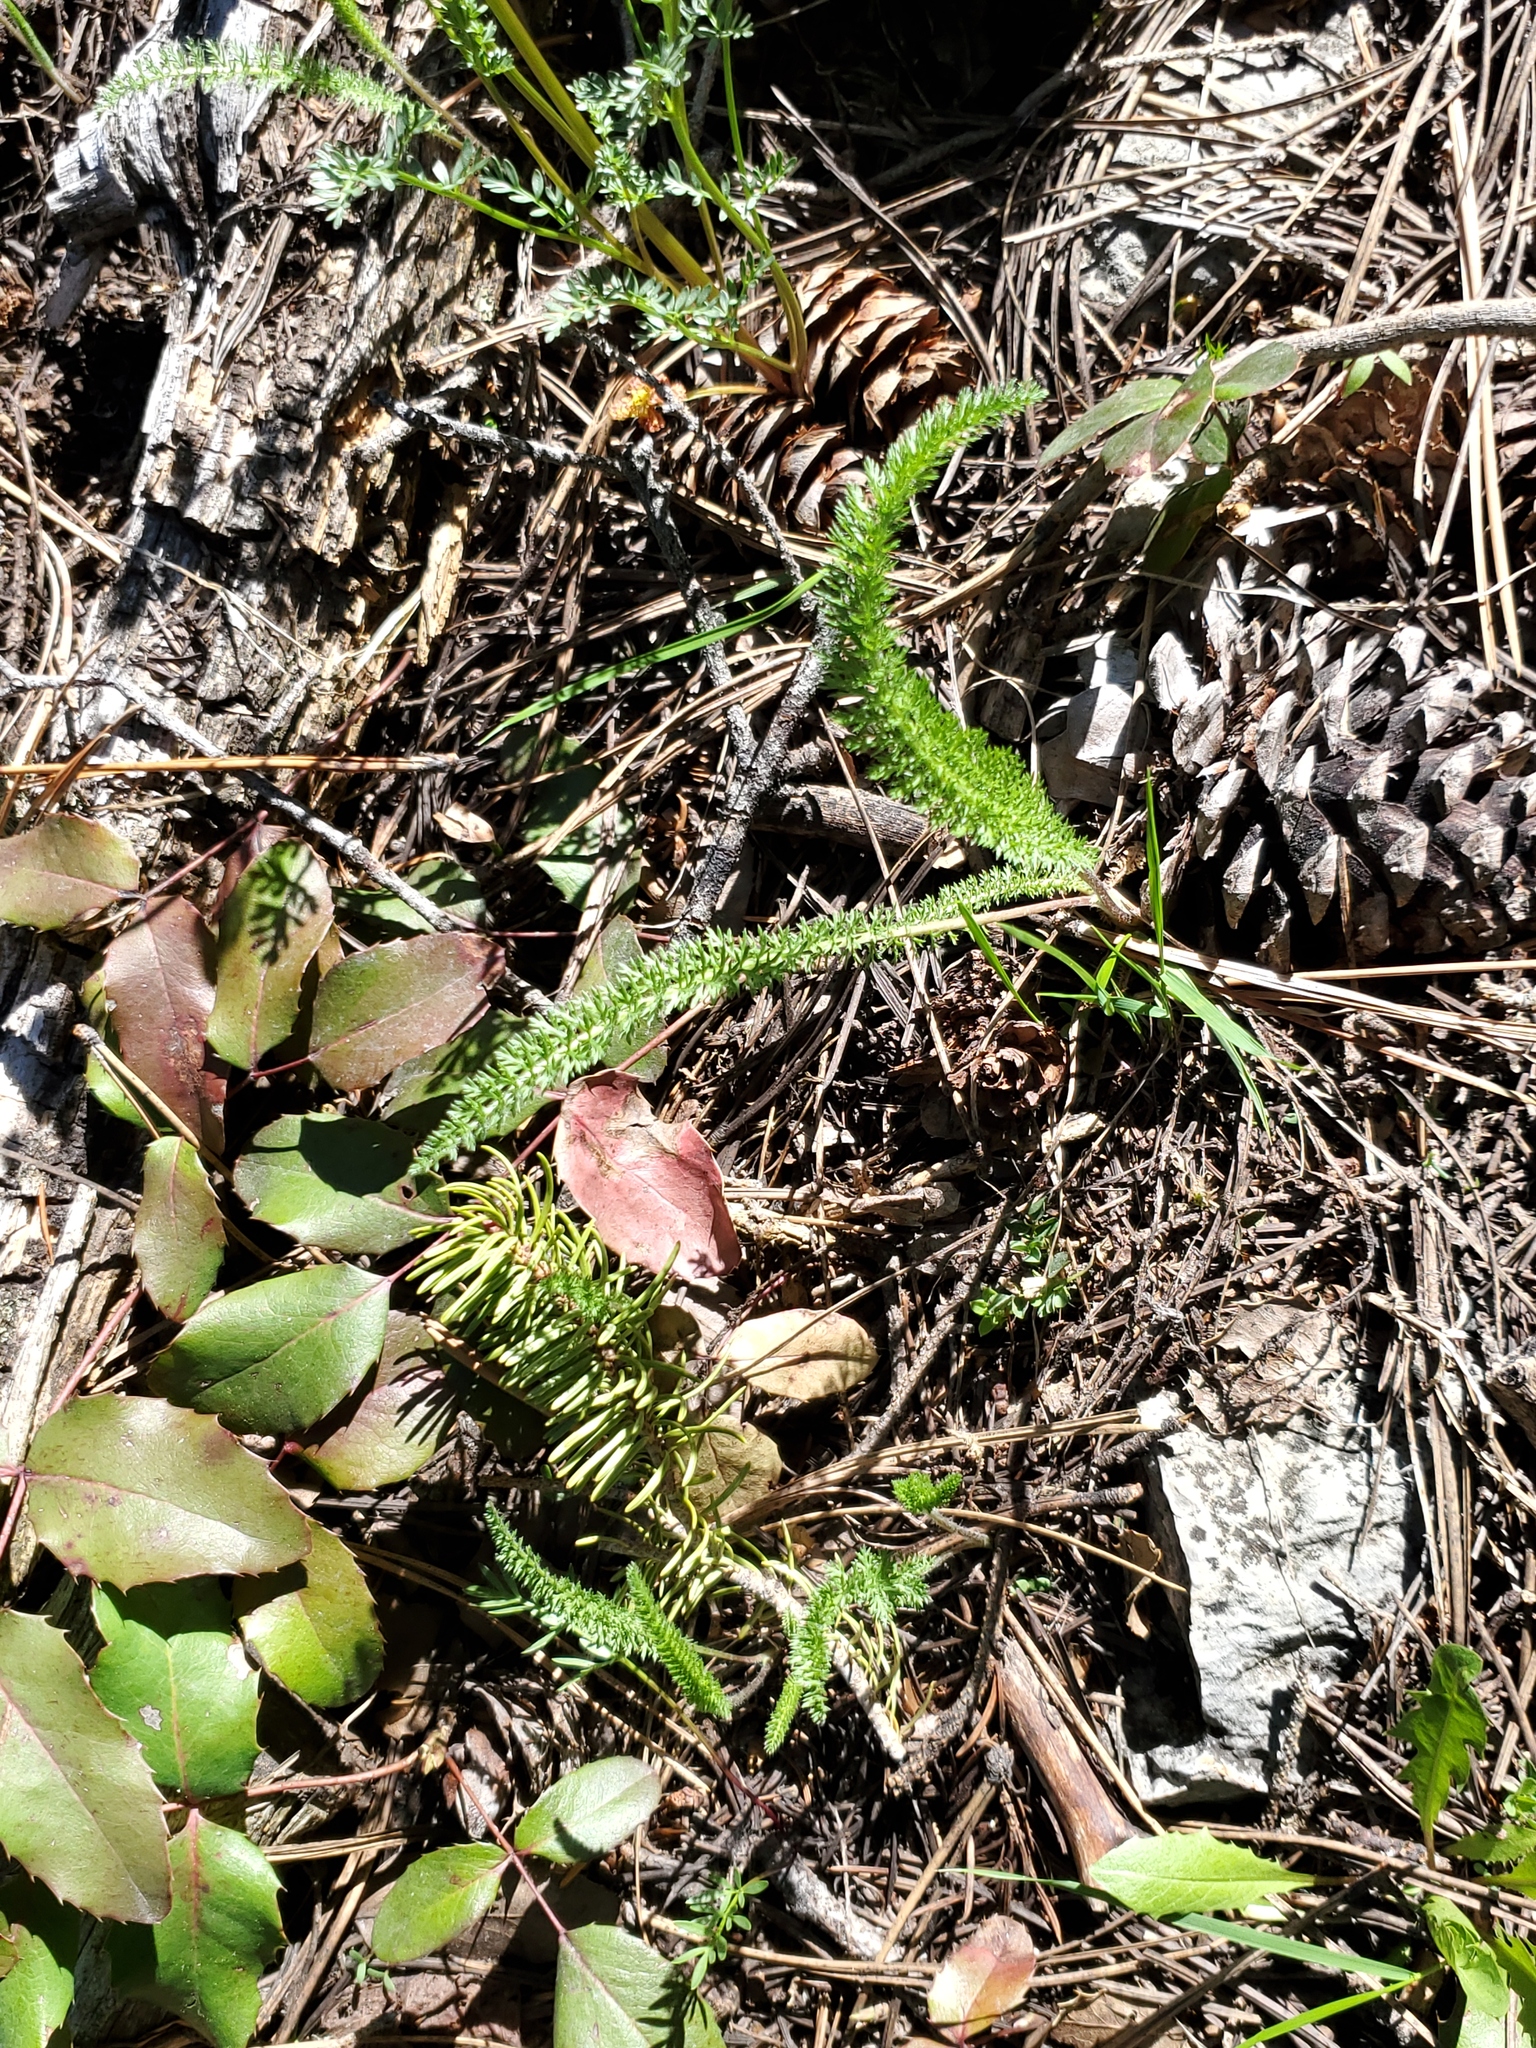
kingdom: Plantae
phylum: Tracheophyta
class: Magnoliopsida
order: Asterales
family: Asteraceae
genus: Achillea
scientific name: Achillea millefolium
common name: Yarrow
